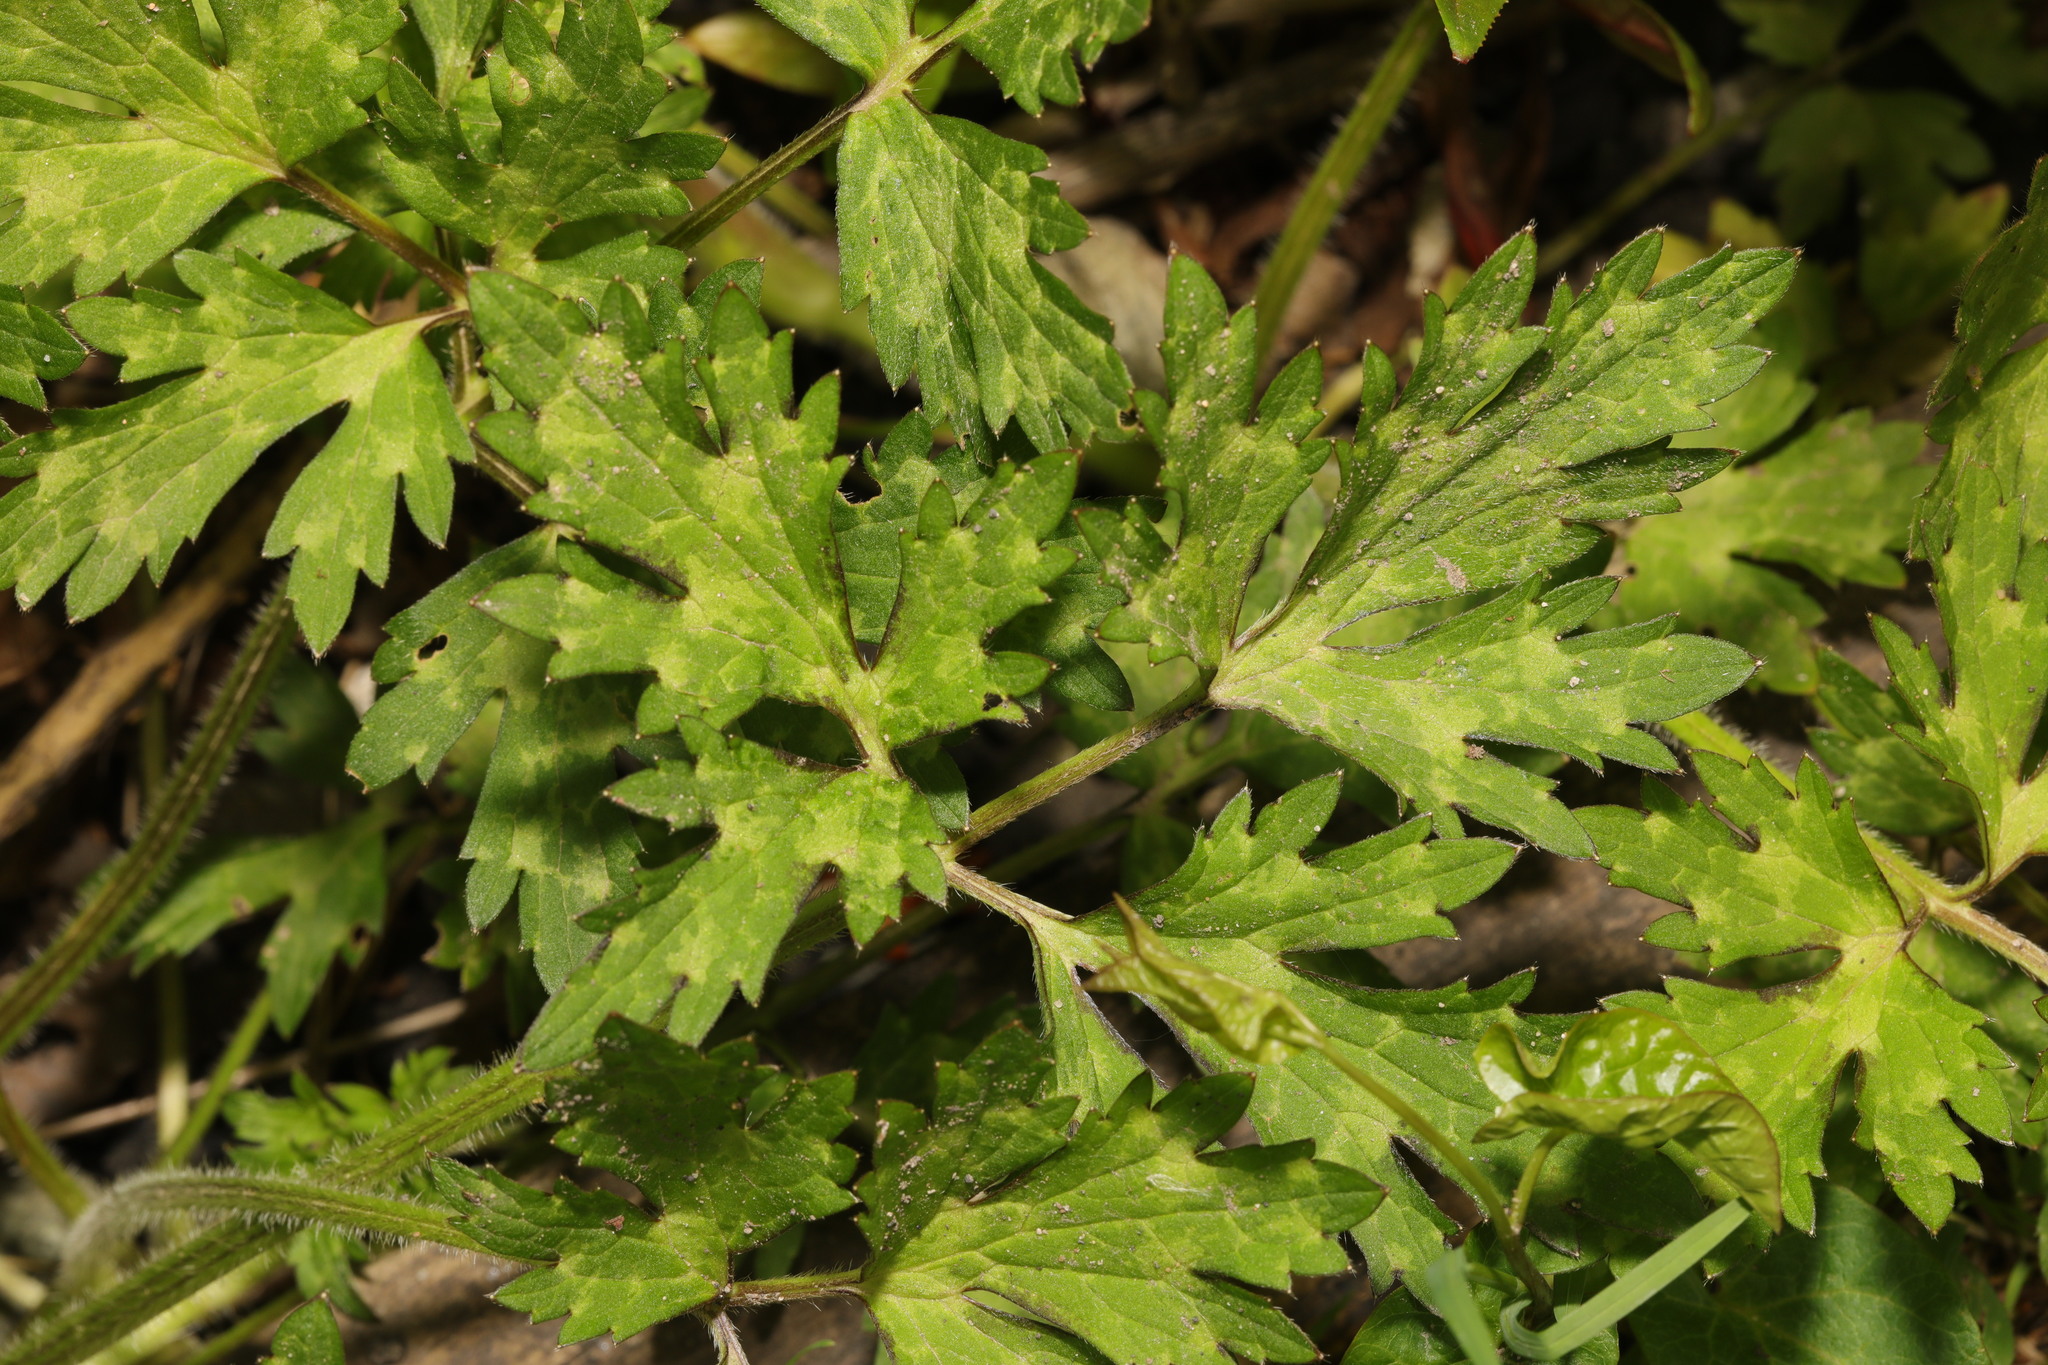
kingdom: Plantae
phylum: Tracheophyta
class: Magnoliopsida
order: Ranunculales
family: Ranunculaceae
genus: Ranunculus
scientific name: Ranunculus repens
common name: Creeping buttercup
